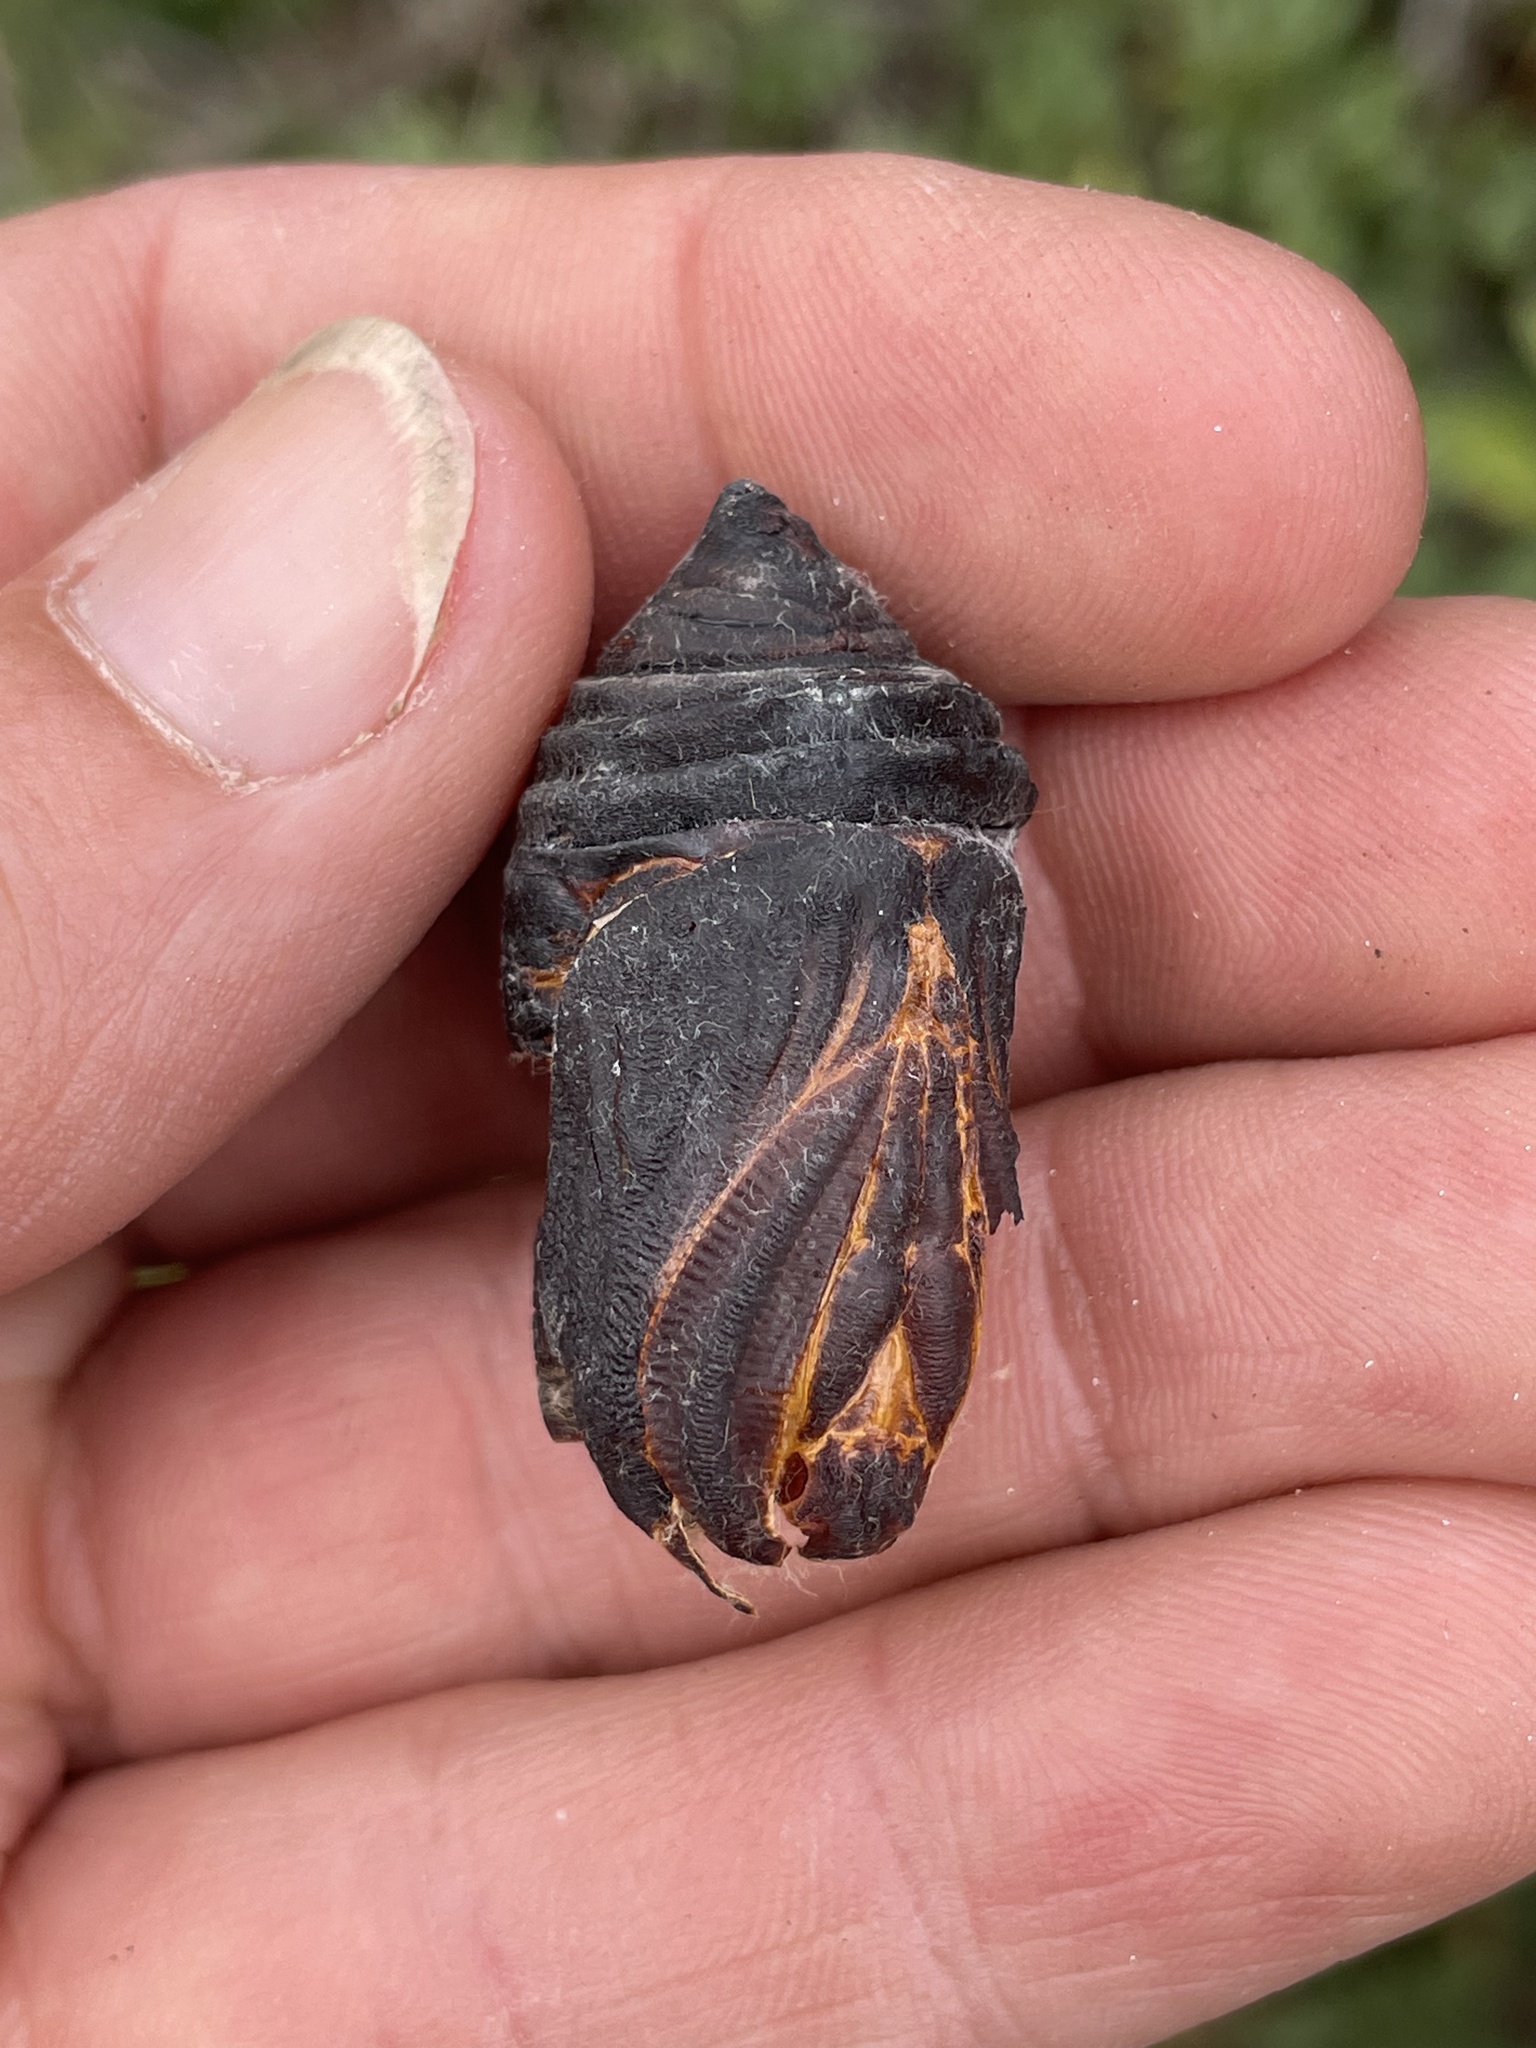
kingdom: Animalia
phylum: Arthropoda
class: Insecta
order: Lepidoptera
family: Saturniidae
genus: Hyalophora
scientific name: Hyalophora euryalus
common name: Ceanothus silkmoth
